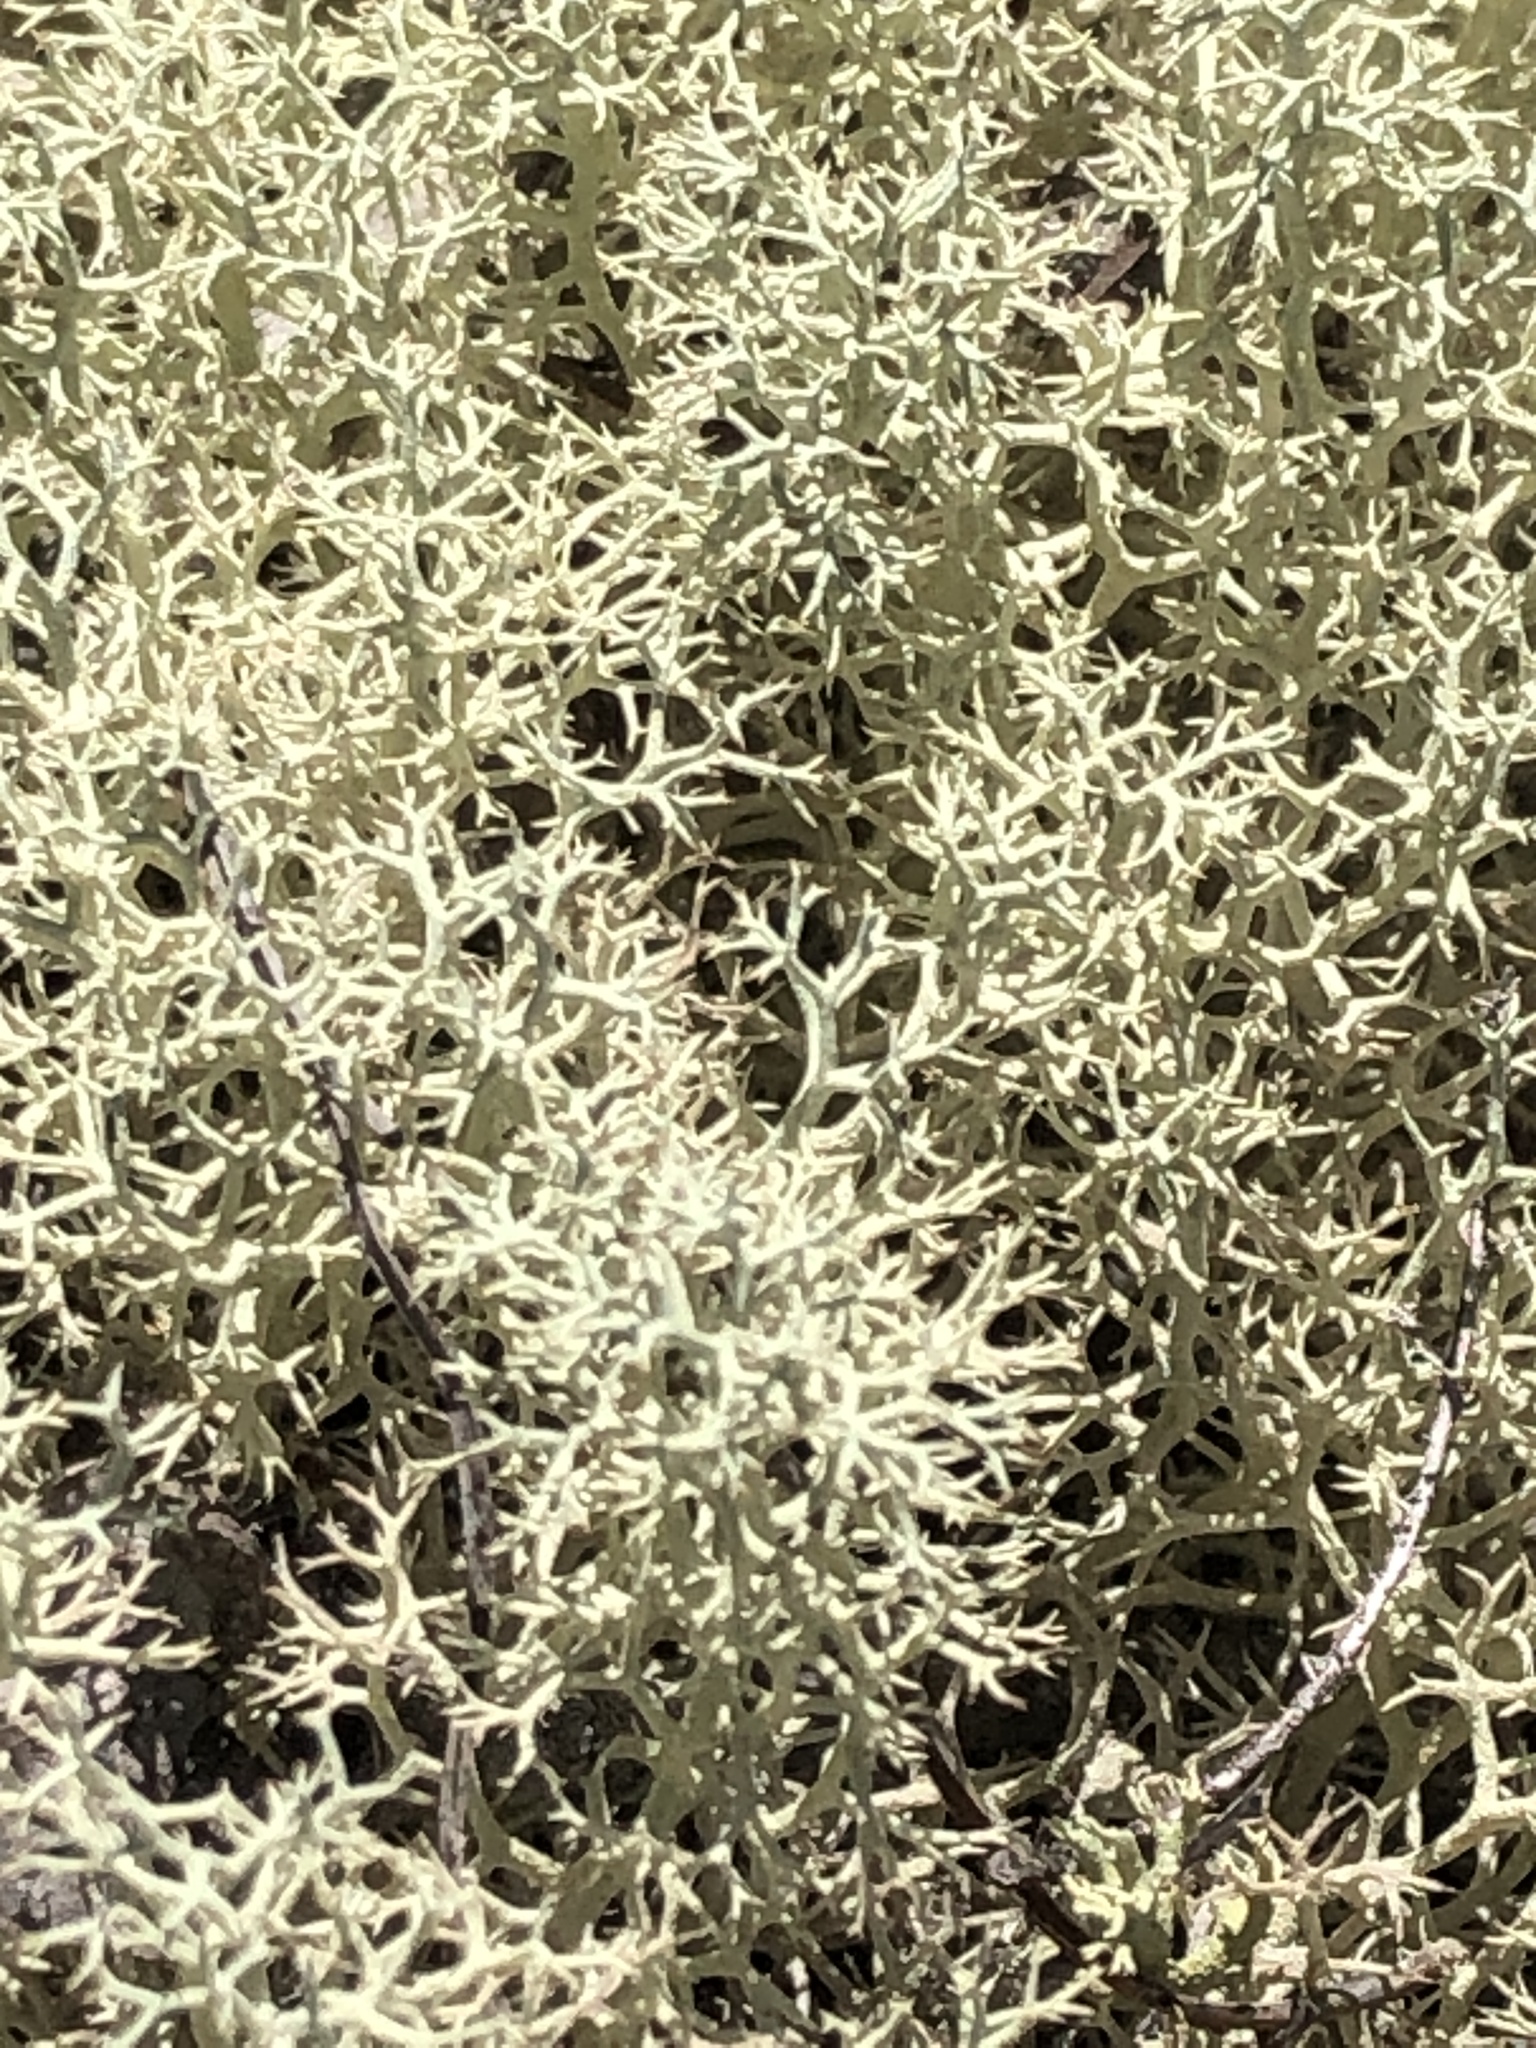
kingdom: Fungi
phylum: Ascomycota
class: Lecanoromycetes
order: Lecanorales
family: Cladoniaceae
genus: Cladonia
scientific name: Cladonia subtenuis
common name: Dixie reindeer lichen
